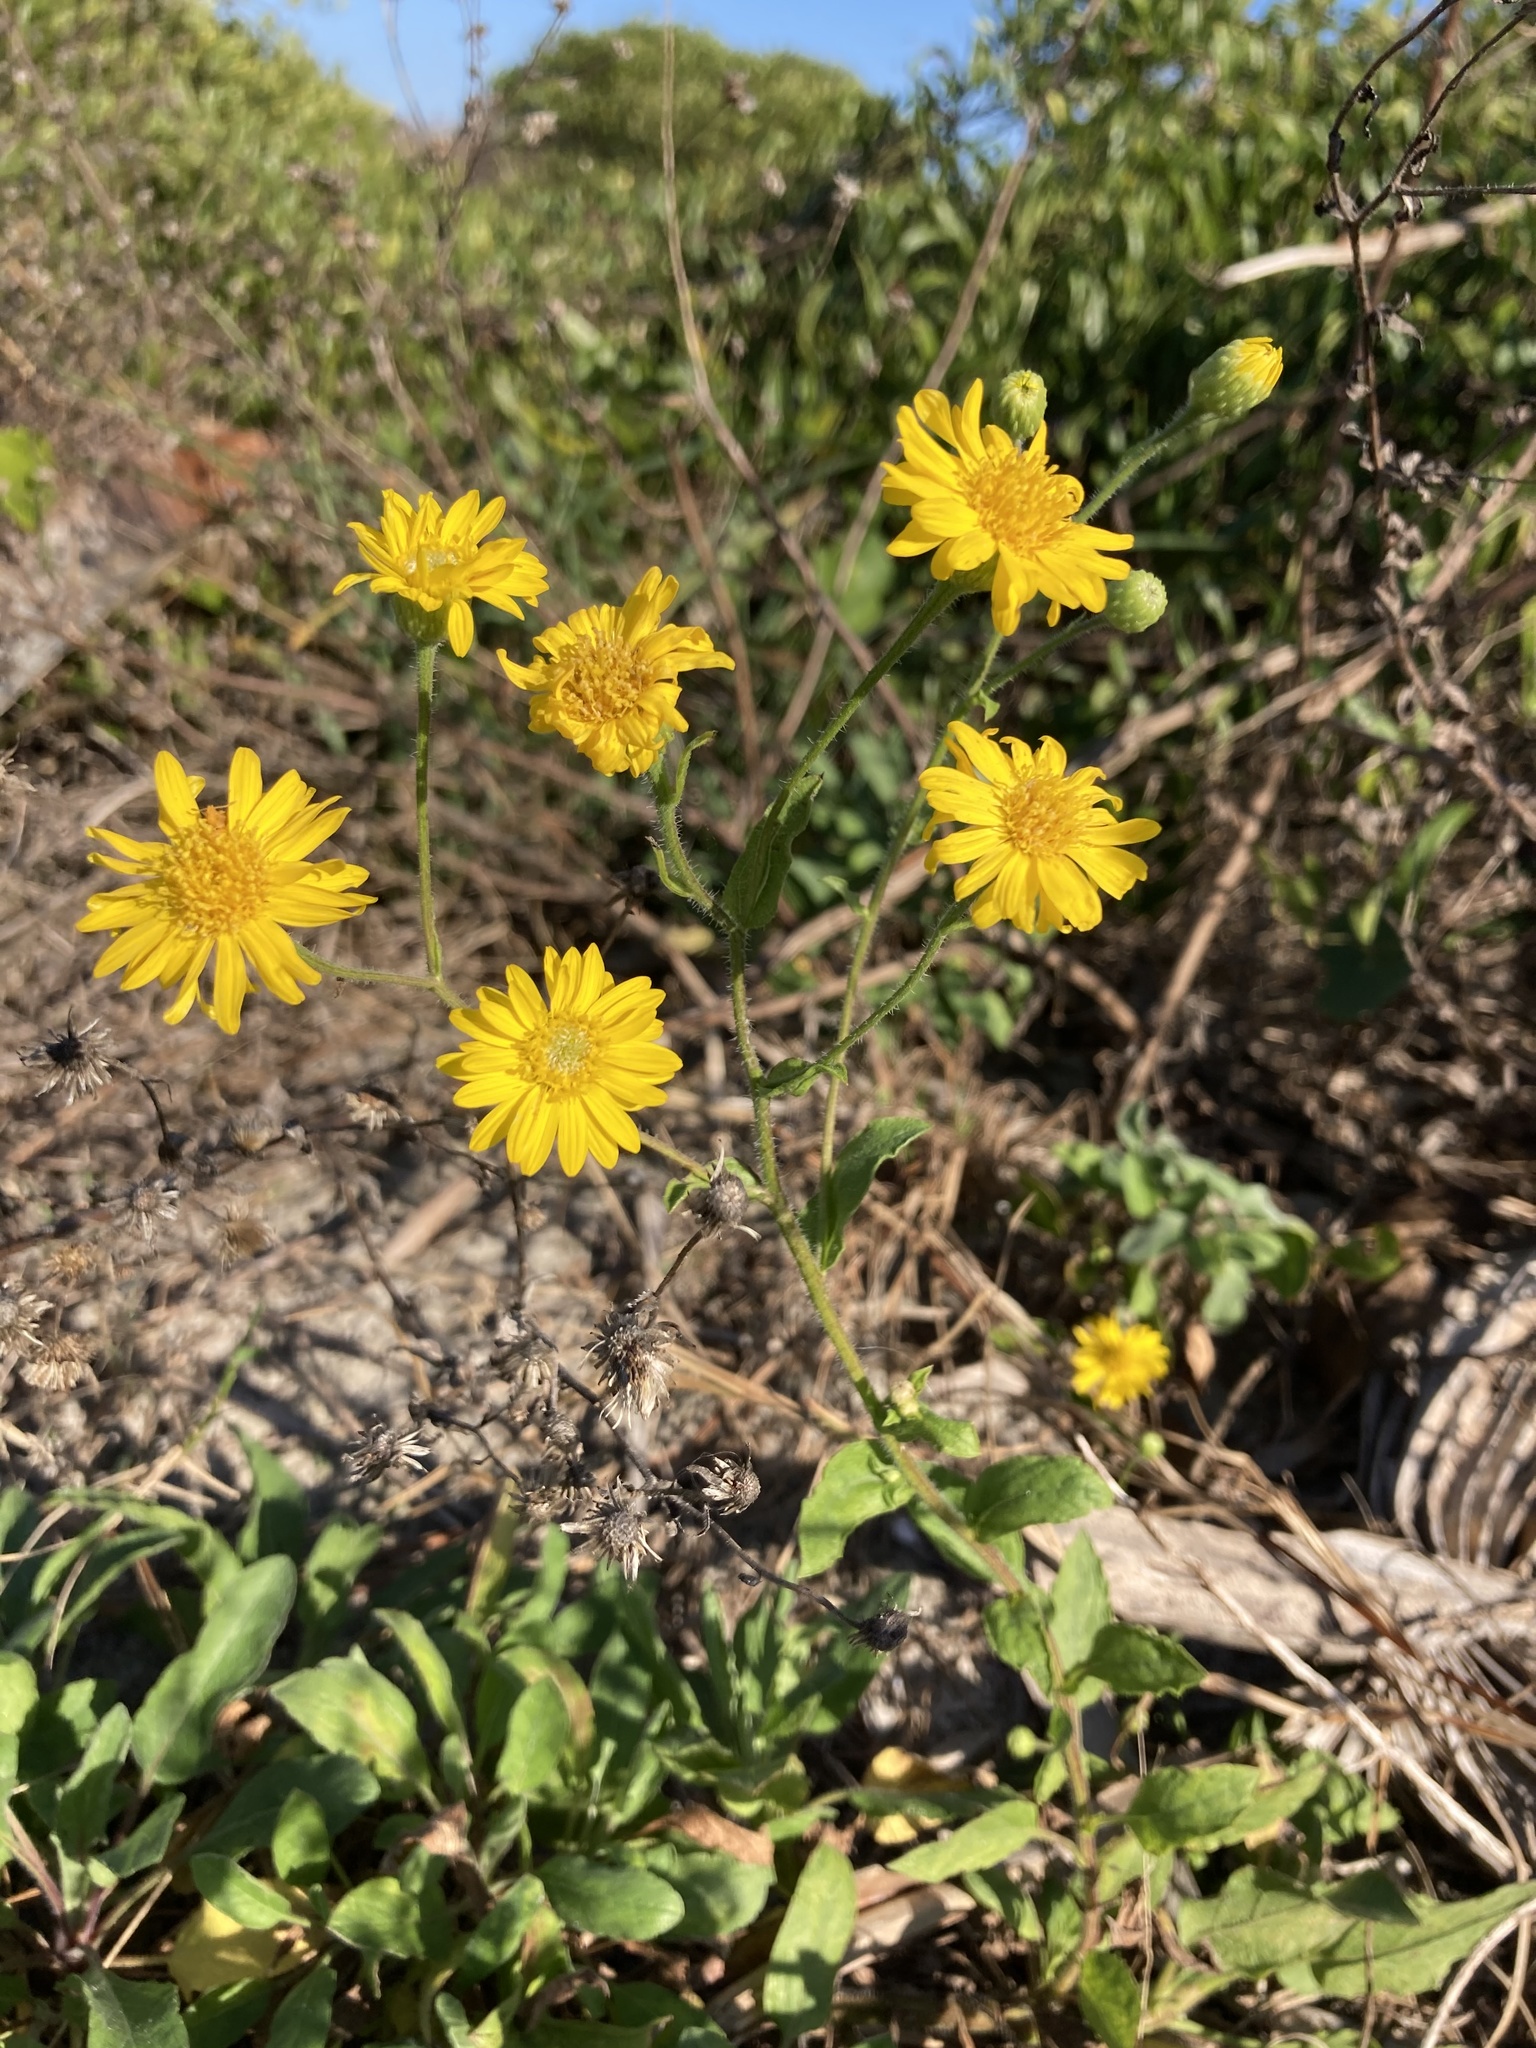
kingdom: Plantae
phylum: Tracheophyta
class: Magnoliopsida
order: Asterales
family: Asteraceae
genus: Heterotheca
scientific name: Heterotheca subaxillaris
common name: Camphorweed
